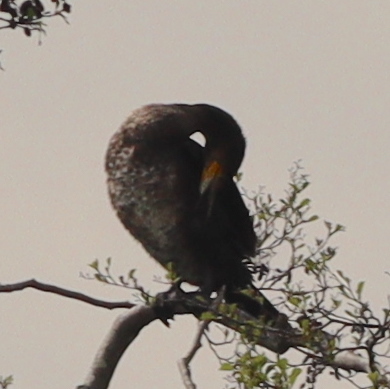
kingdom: Animalia
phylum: Chordata
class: Aves
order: Suliformes
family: Phalacrocoracidae
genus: Phalacrocorax
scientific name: Phalacrocorax carbo
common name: Great cormorant
